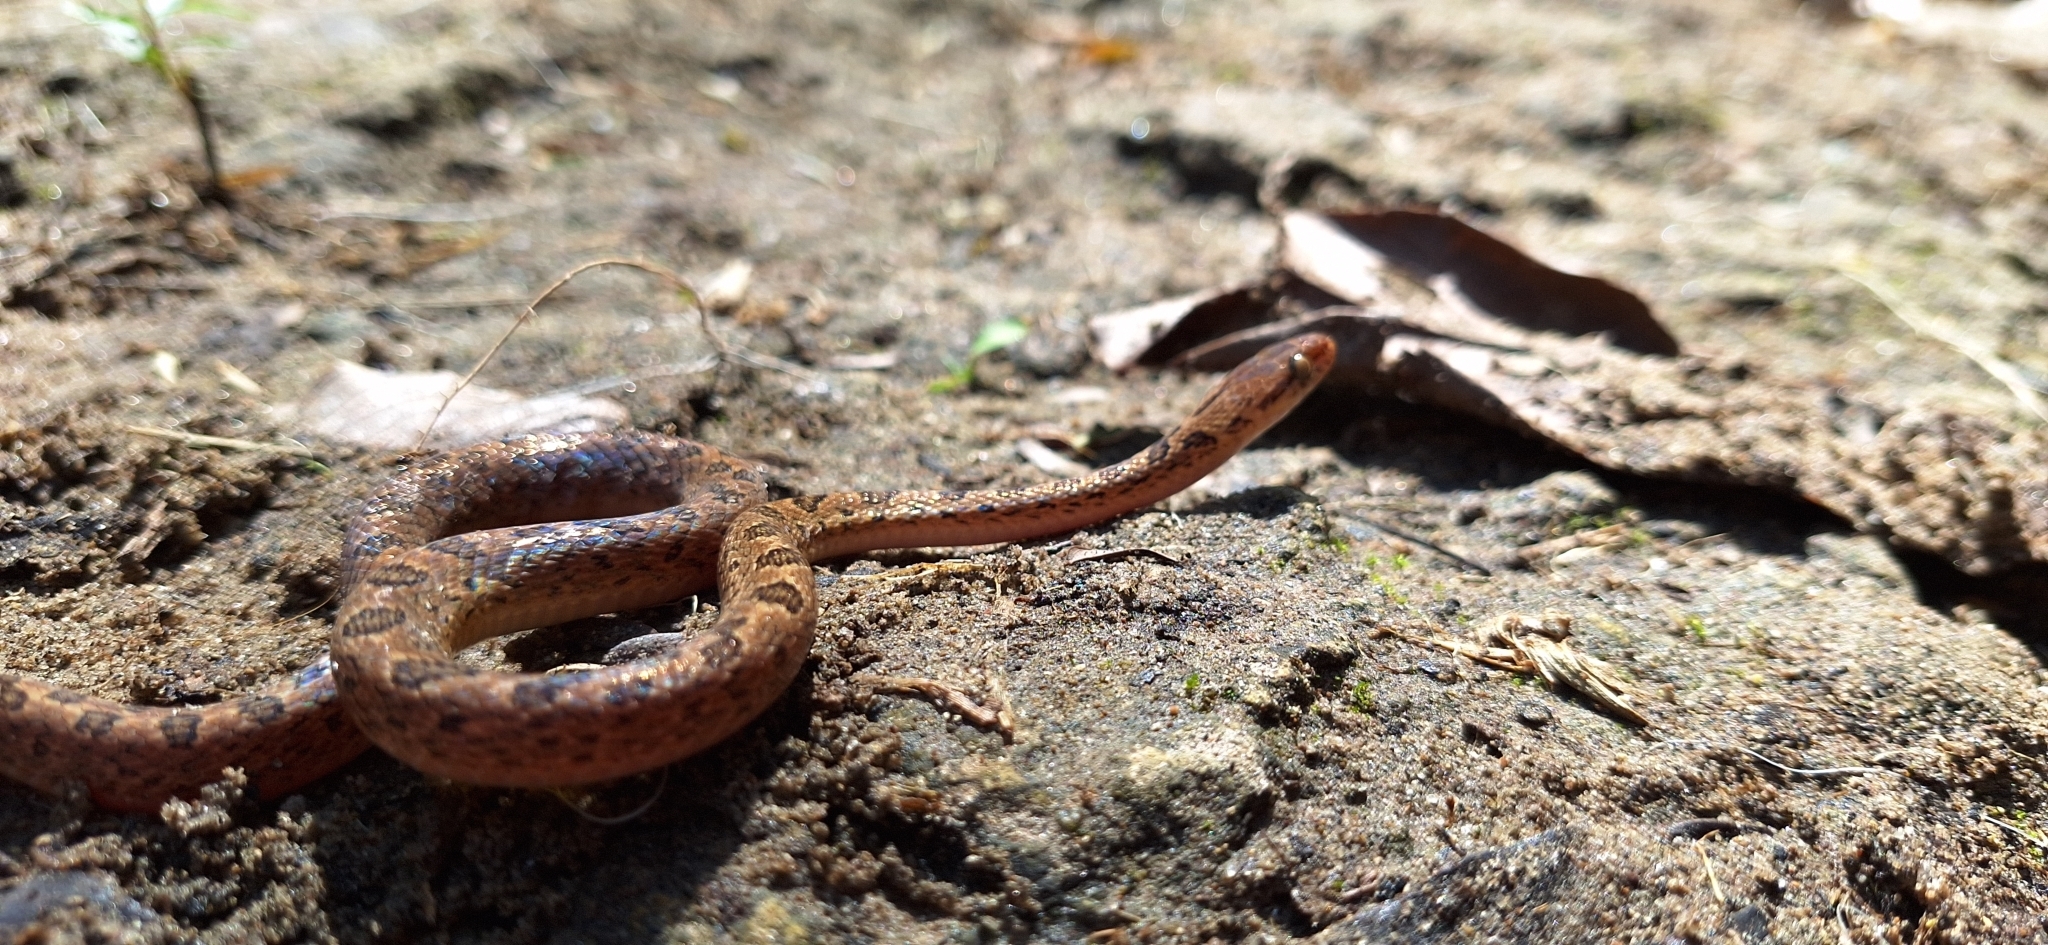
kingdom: Animalia
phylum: Chordata
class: Squamata
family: Colubridae
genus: Leptodeira
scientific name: Leptodeira rhombifera
